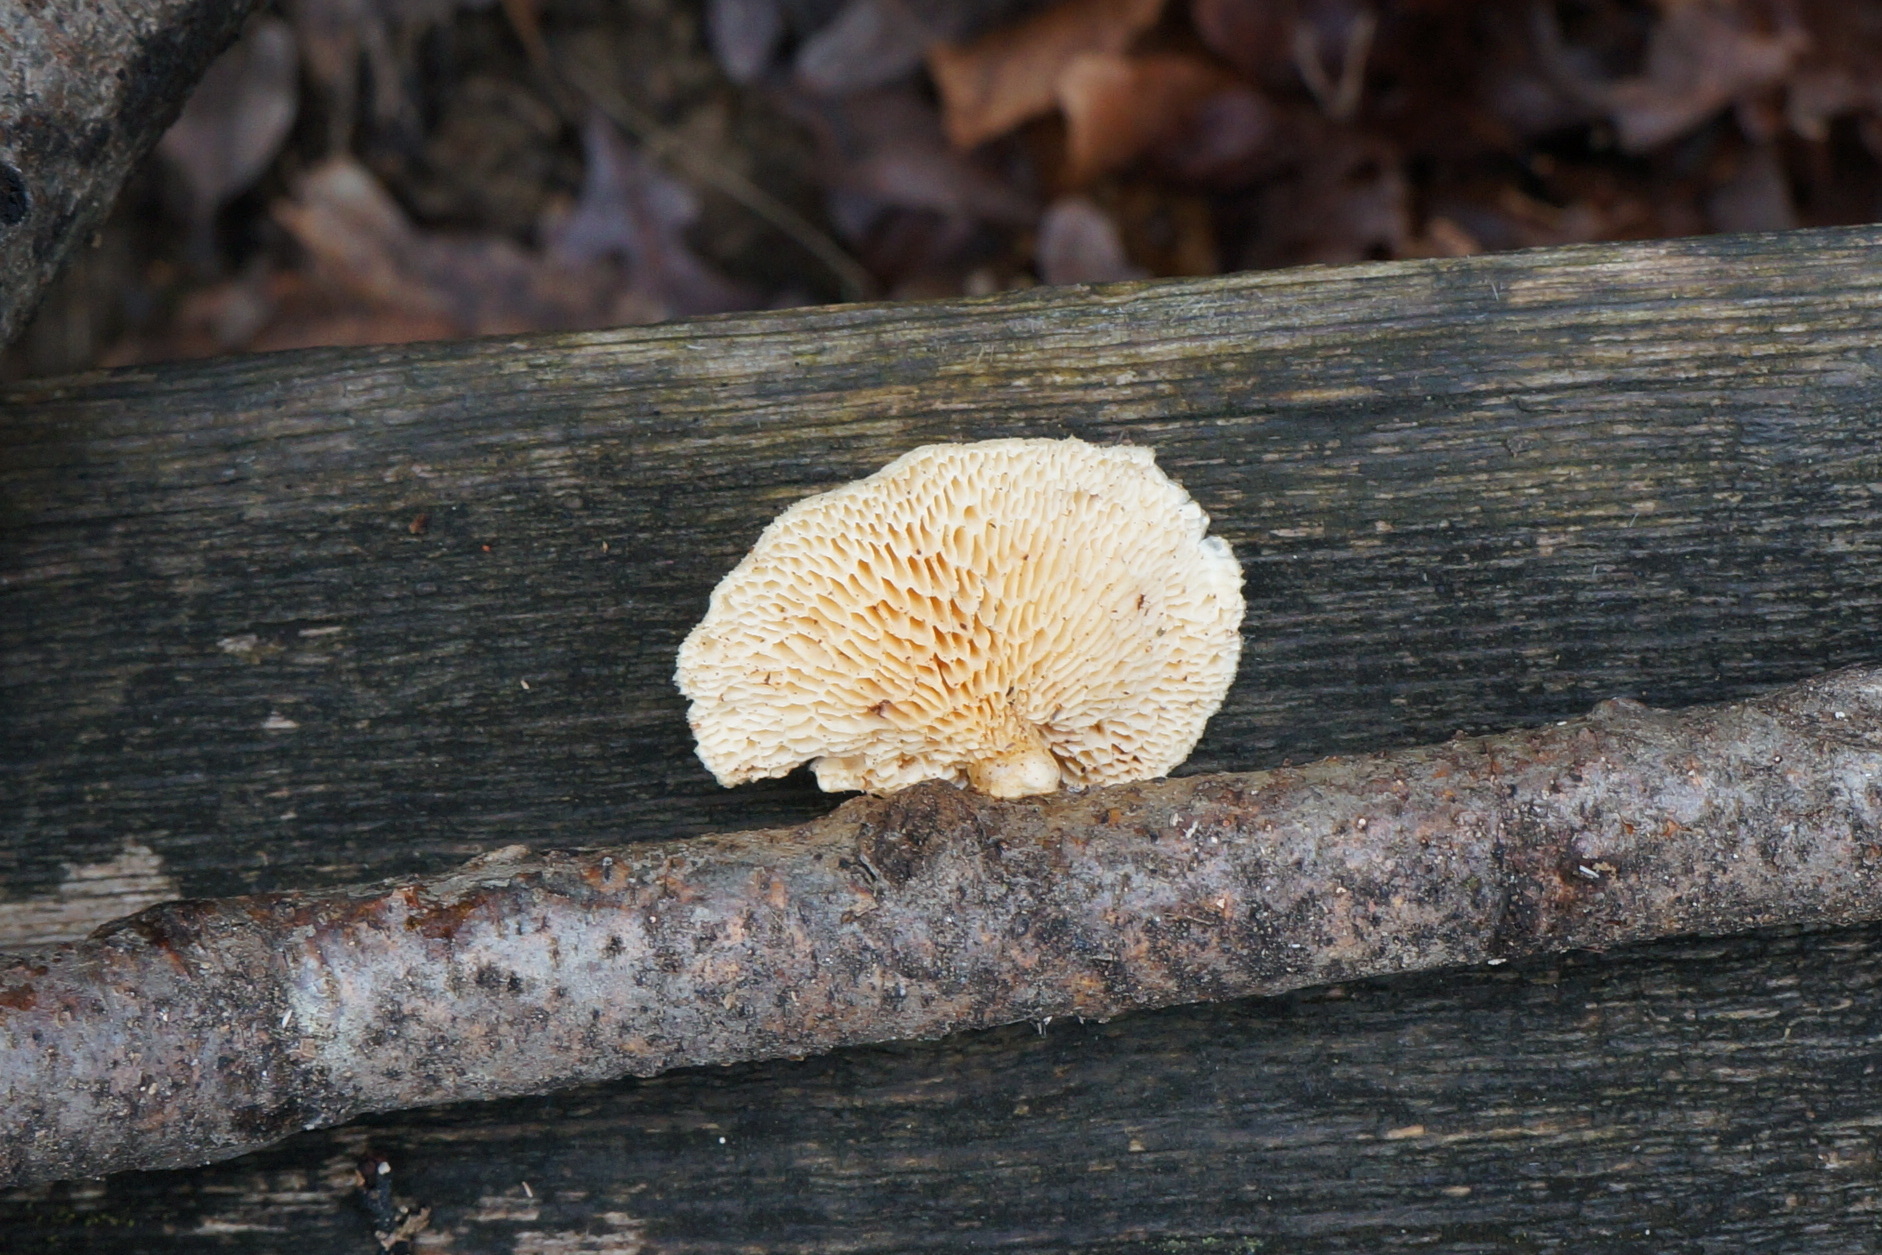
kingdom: Fungi
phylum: Basidiomycota
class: Agaricomycetes
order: Polyporales
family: Polyporaceae
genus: Neofavolus
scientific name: Neofavolus alveolaris
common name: Hexagonal-pored polypore
